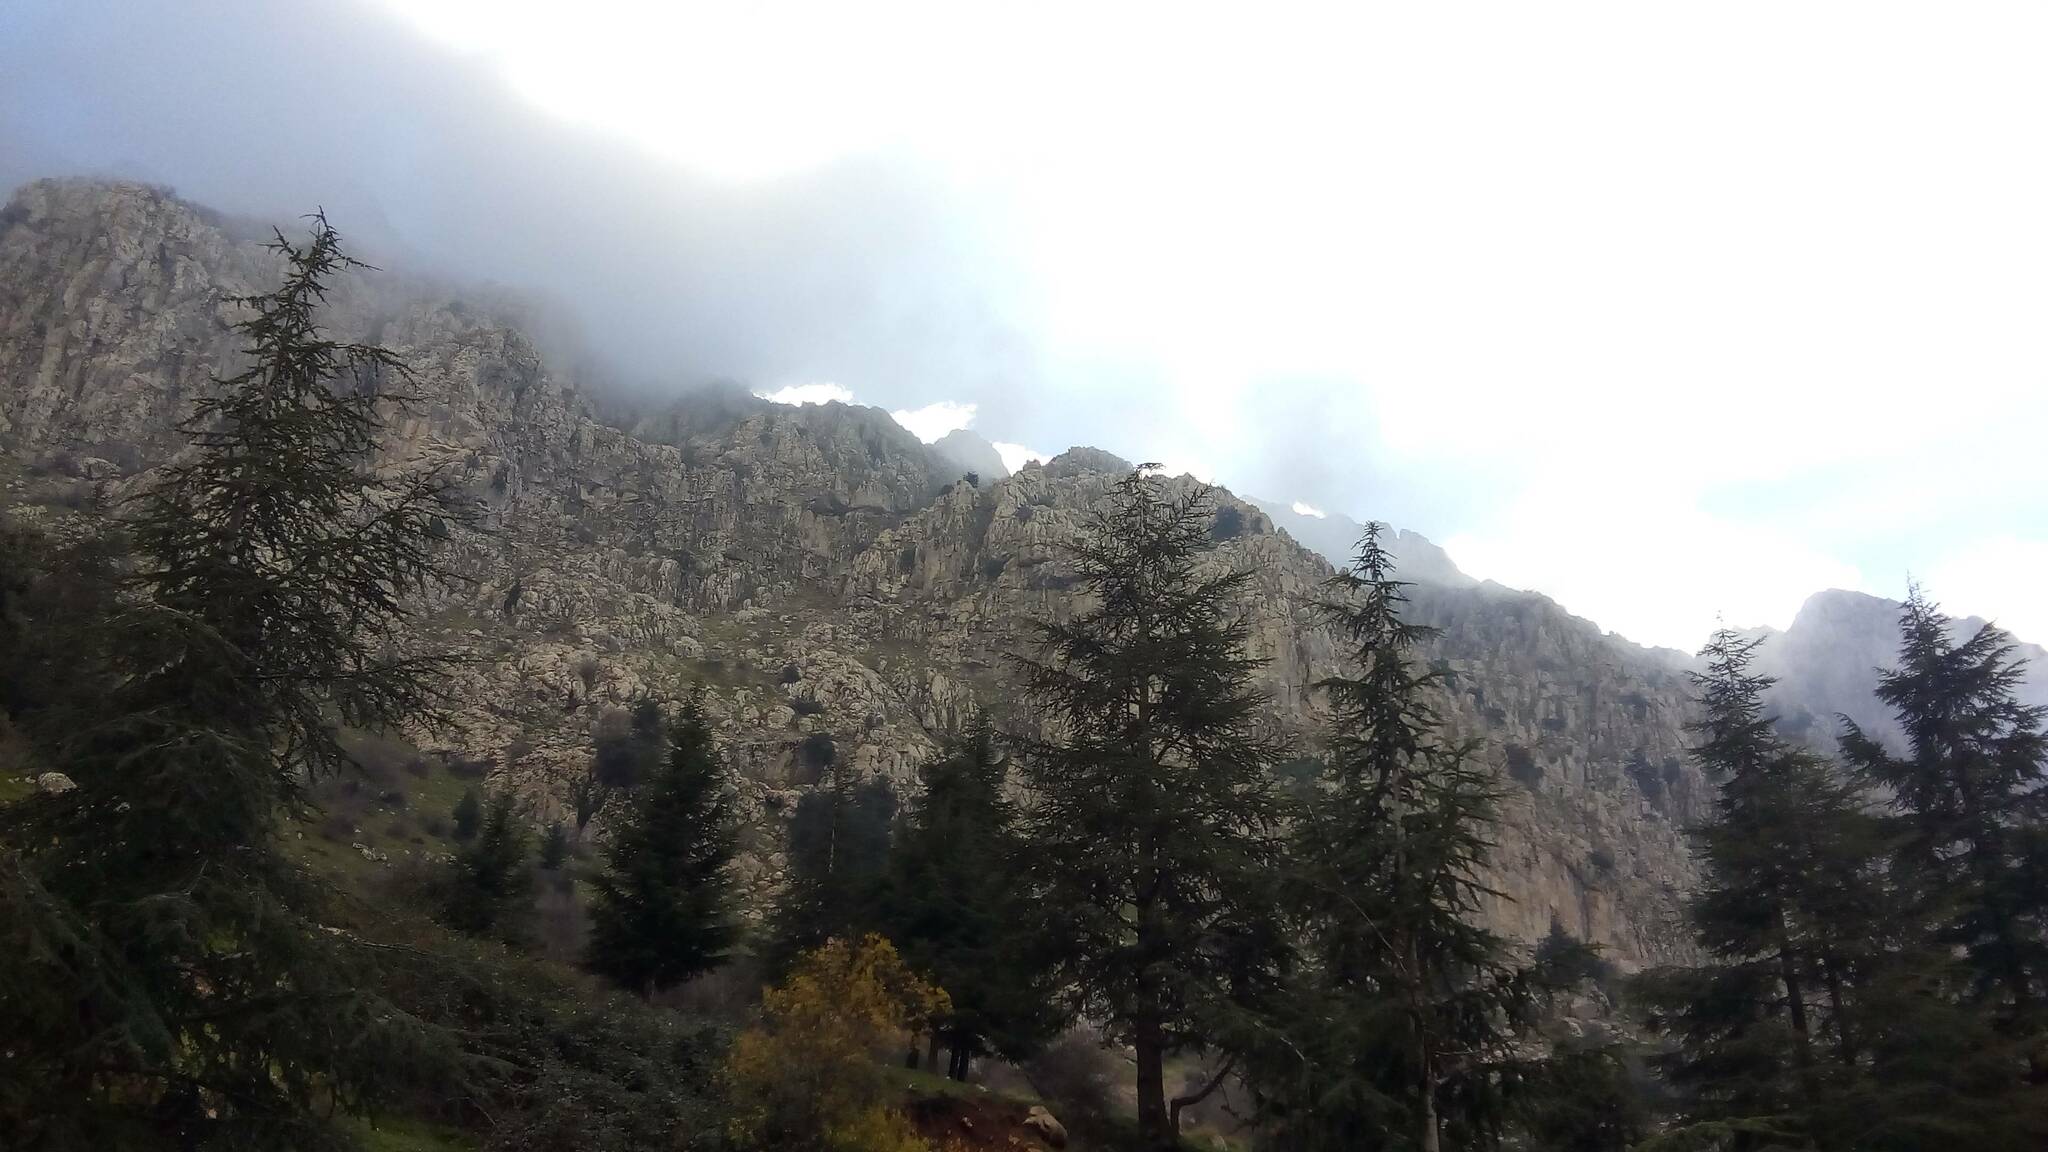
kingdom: Plantae
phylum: Tracheophyta
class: Pinopsida
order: Pinales
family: Pinaceae
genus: Cedrus
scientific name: Cedrus atlantica
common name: Atlas cedar
